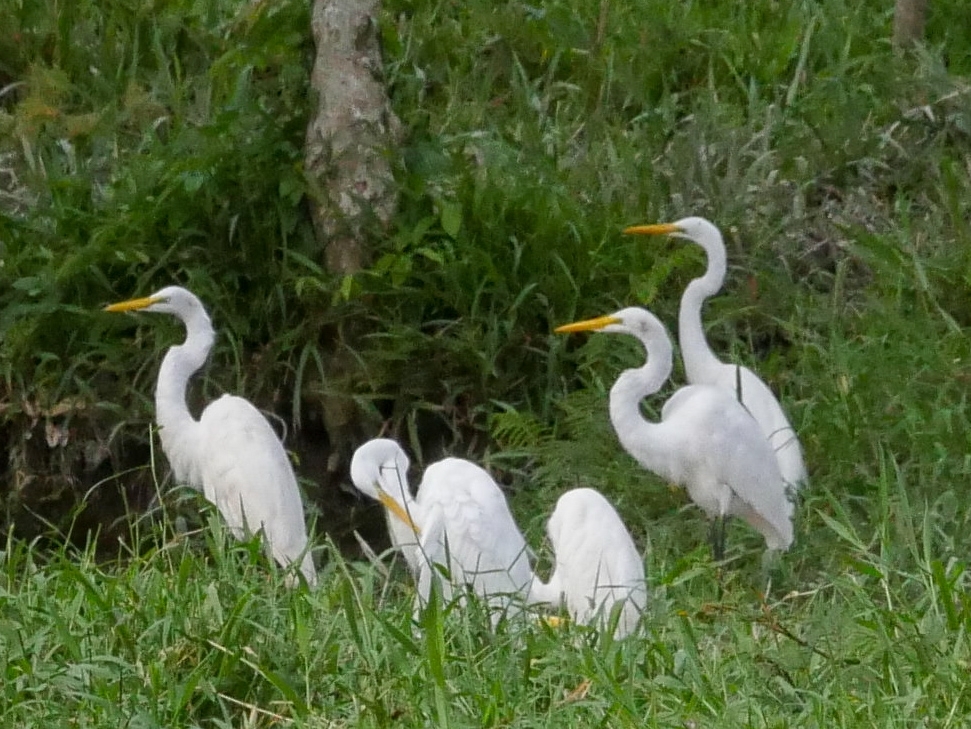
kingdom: Animalia
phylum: Chordata
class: Aves
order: Pelecaniformes
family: Ardeidae
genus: Ardea
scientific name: Ardea alba
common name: Great egret
